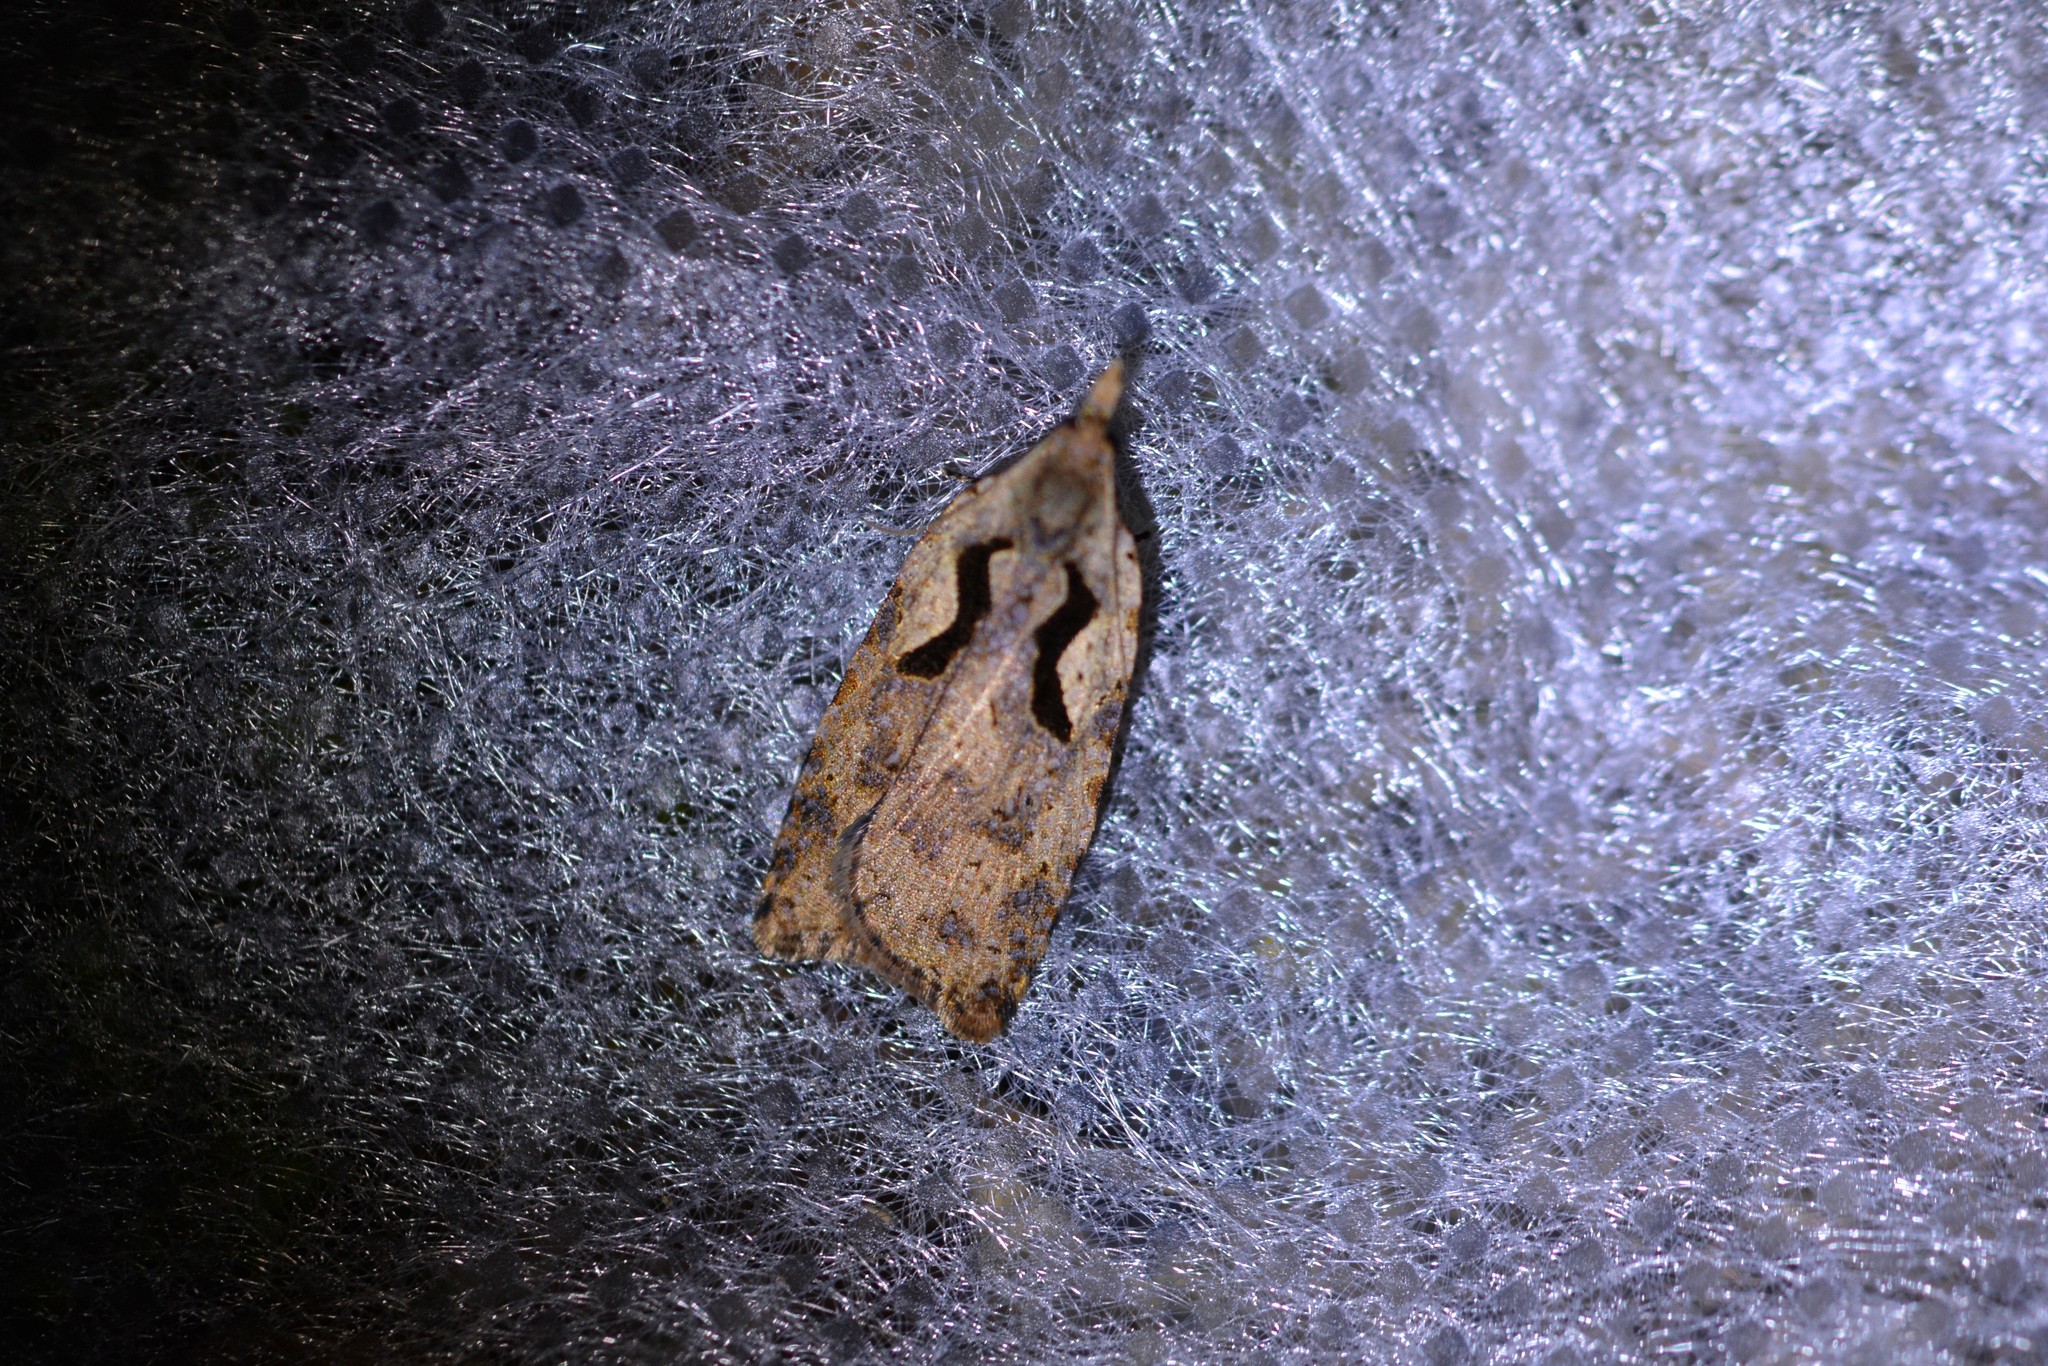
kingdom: Animalia
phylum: Arthropoda
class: Insecta
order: Lepidoptera
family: Tortricidae
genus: Cnephasia
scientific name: Cnephasia jactatana
